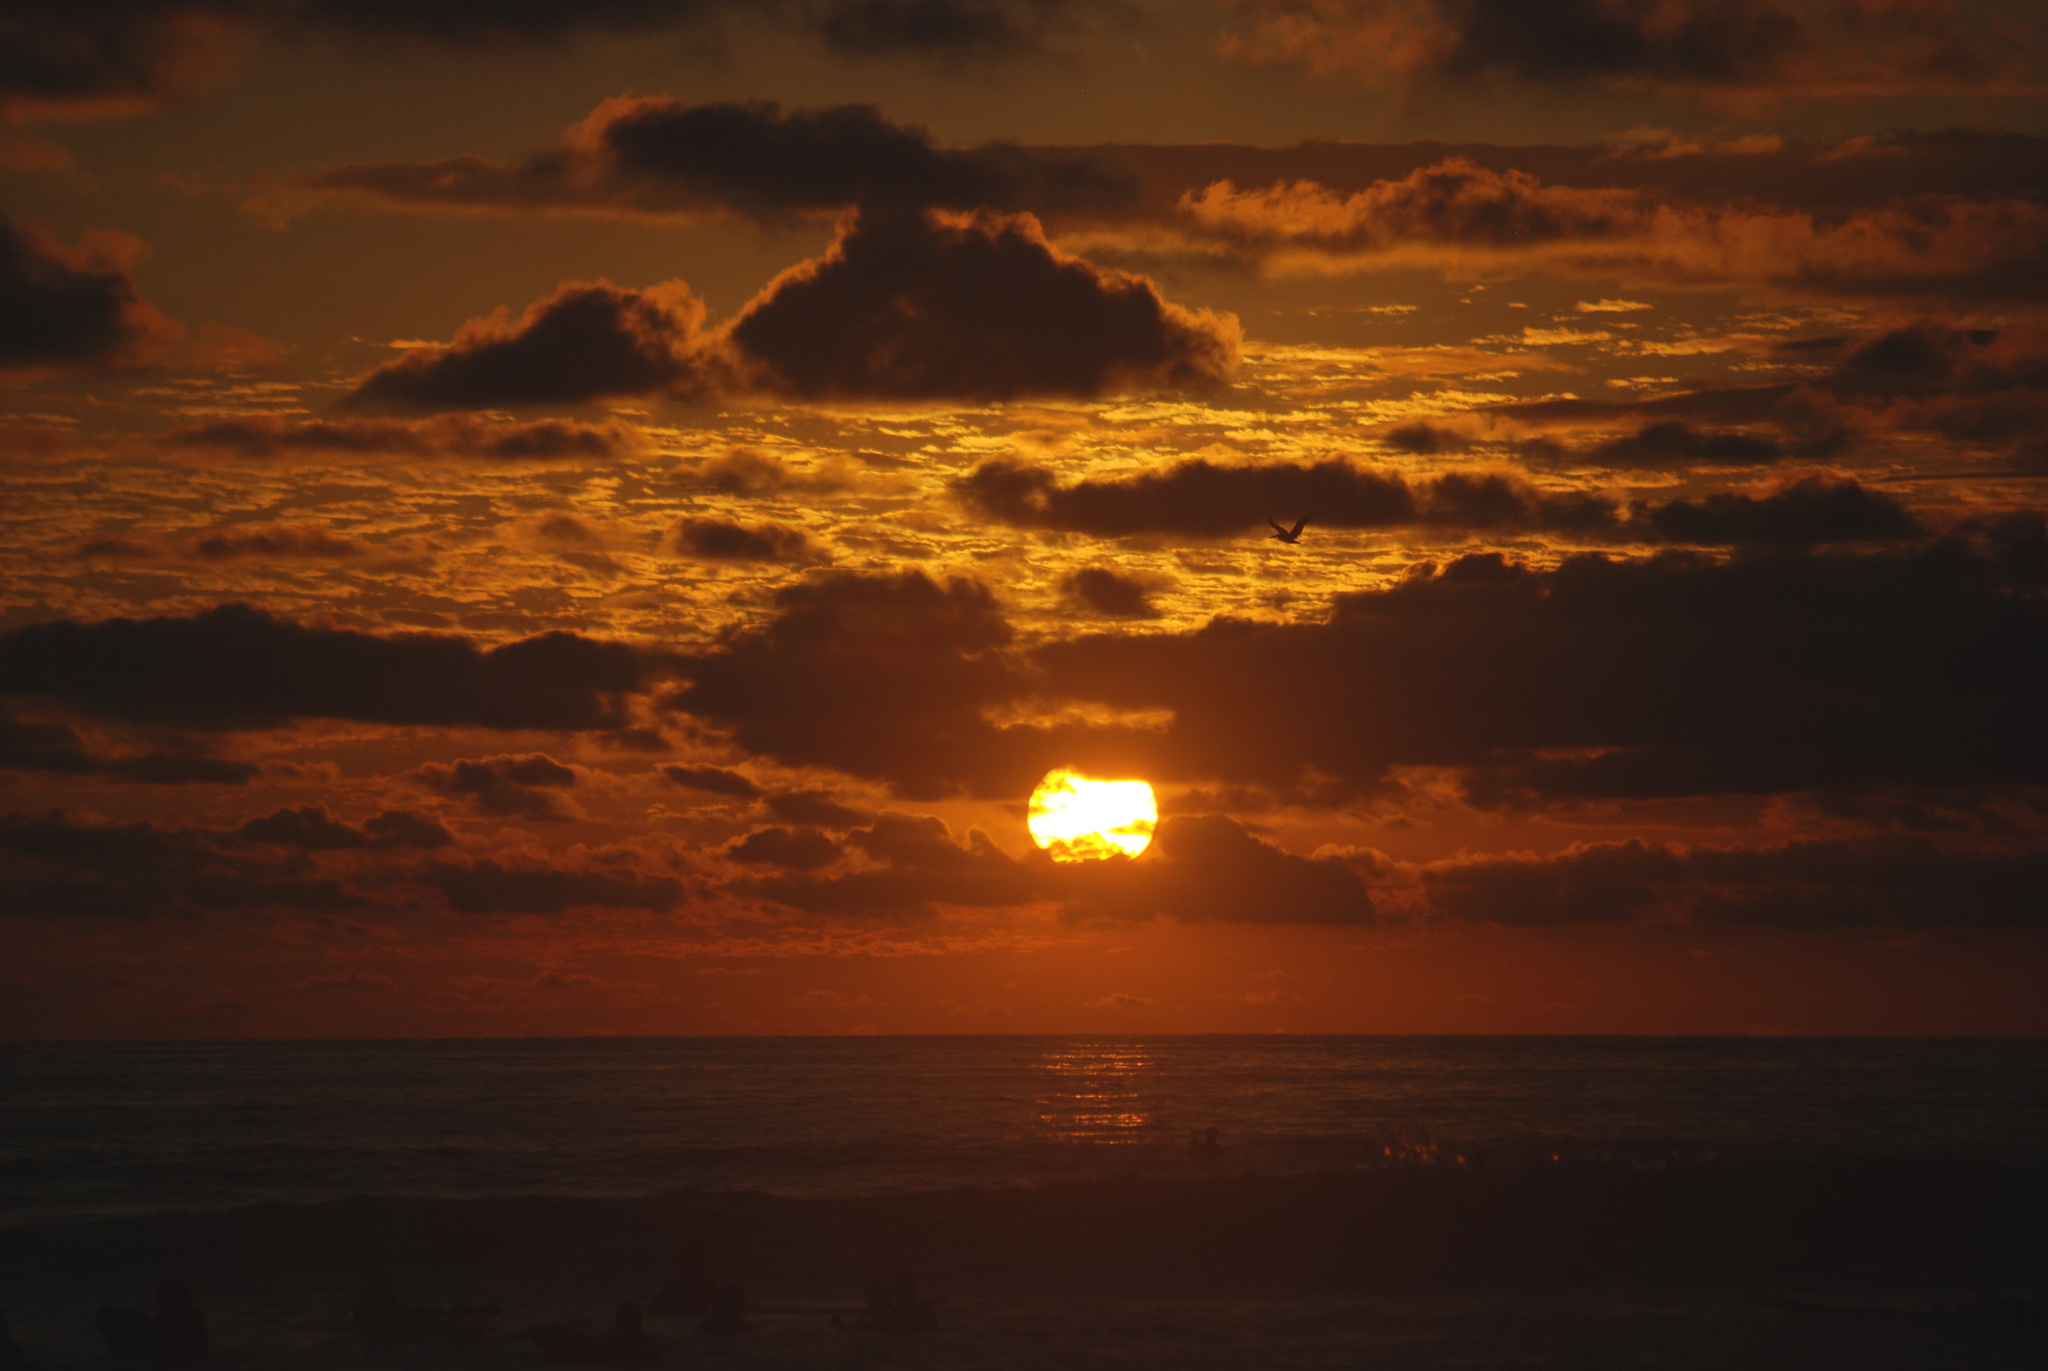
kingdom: Animalia
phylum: Chordata
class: Aves
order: Pelecaniformes
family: Pelecanidae
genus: Pelecanus
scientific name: Pelecanus occidentalis
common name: Brown pelican
